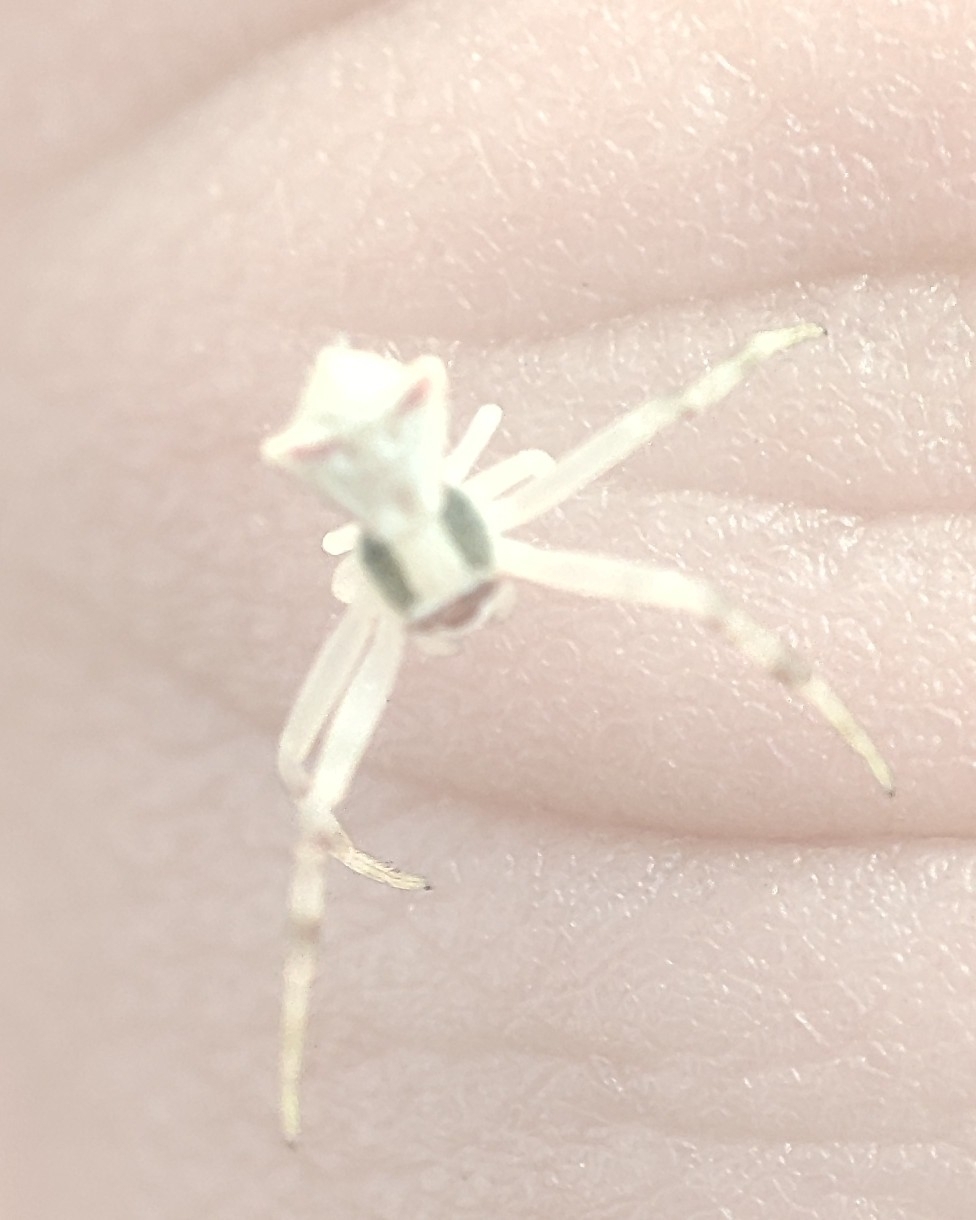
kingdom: Animalia
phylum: Arthropoda
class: Arachnida
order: Araneae
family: Thomisidae
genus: Thomisus
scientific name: Thomisus onustus
